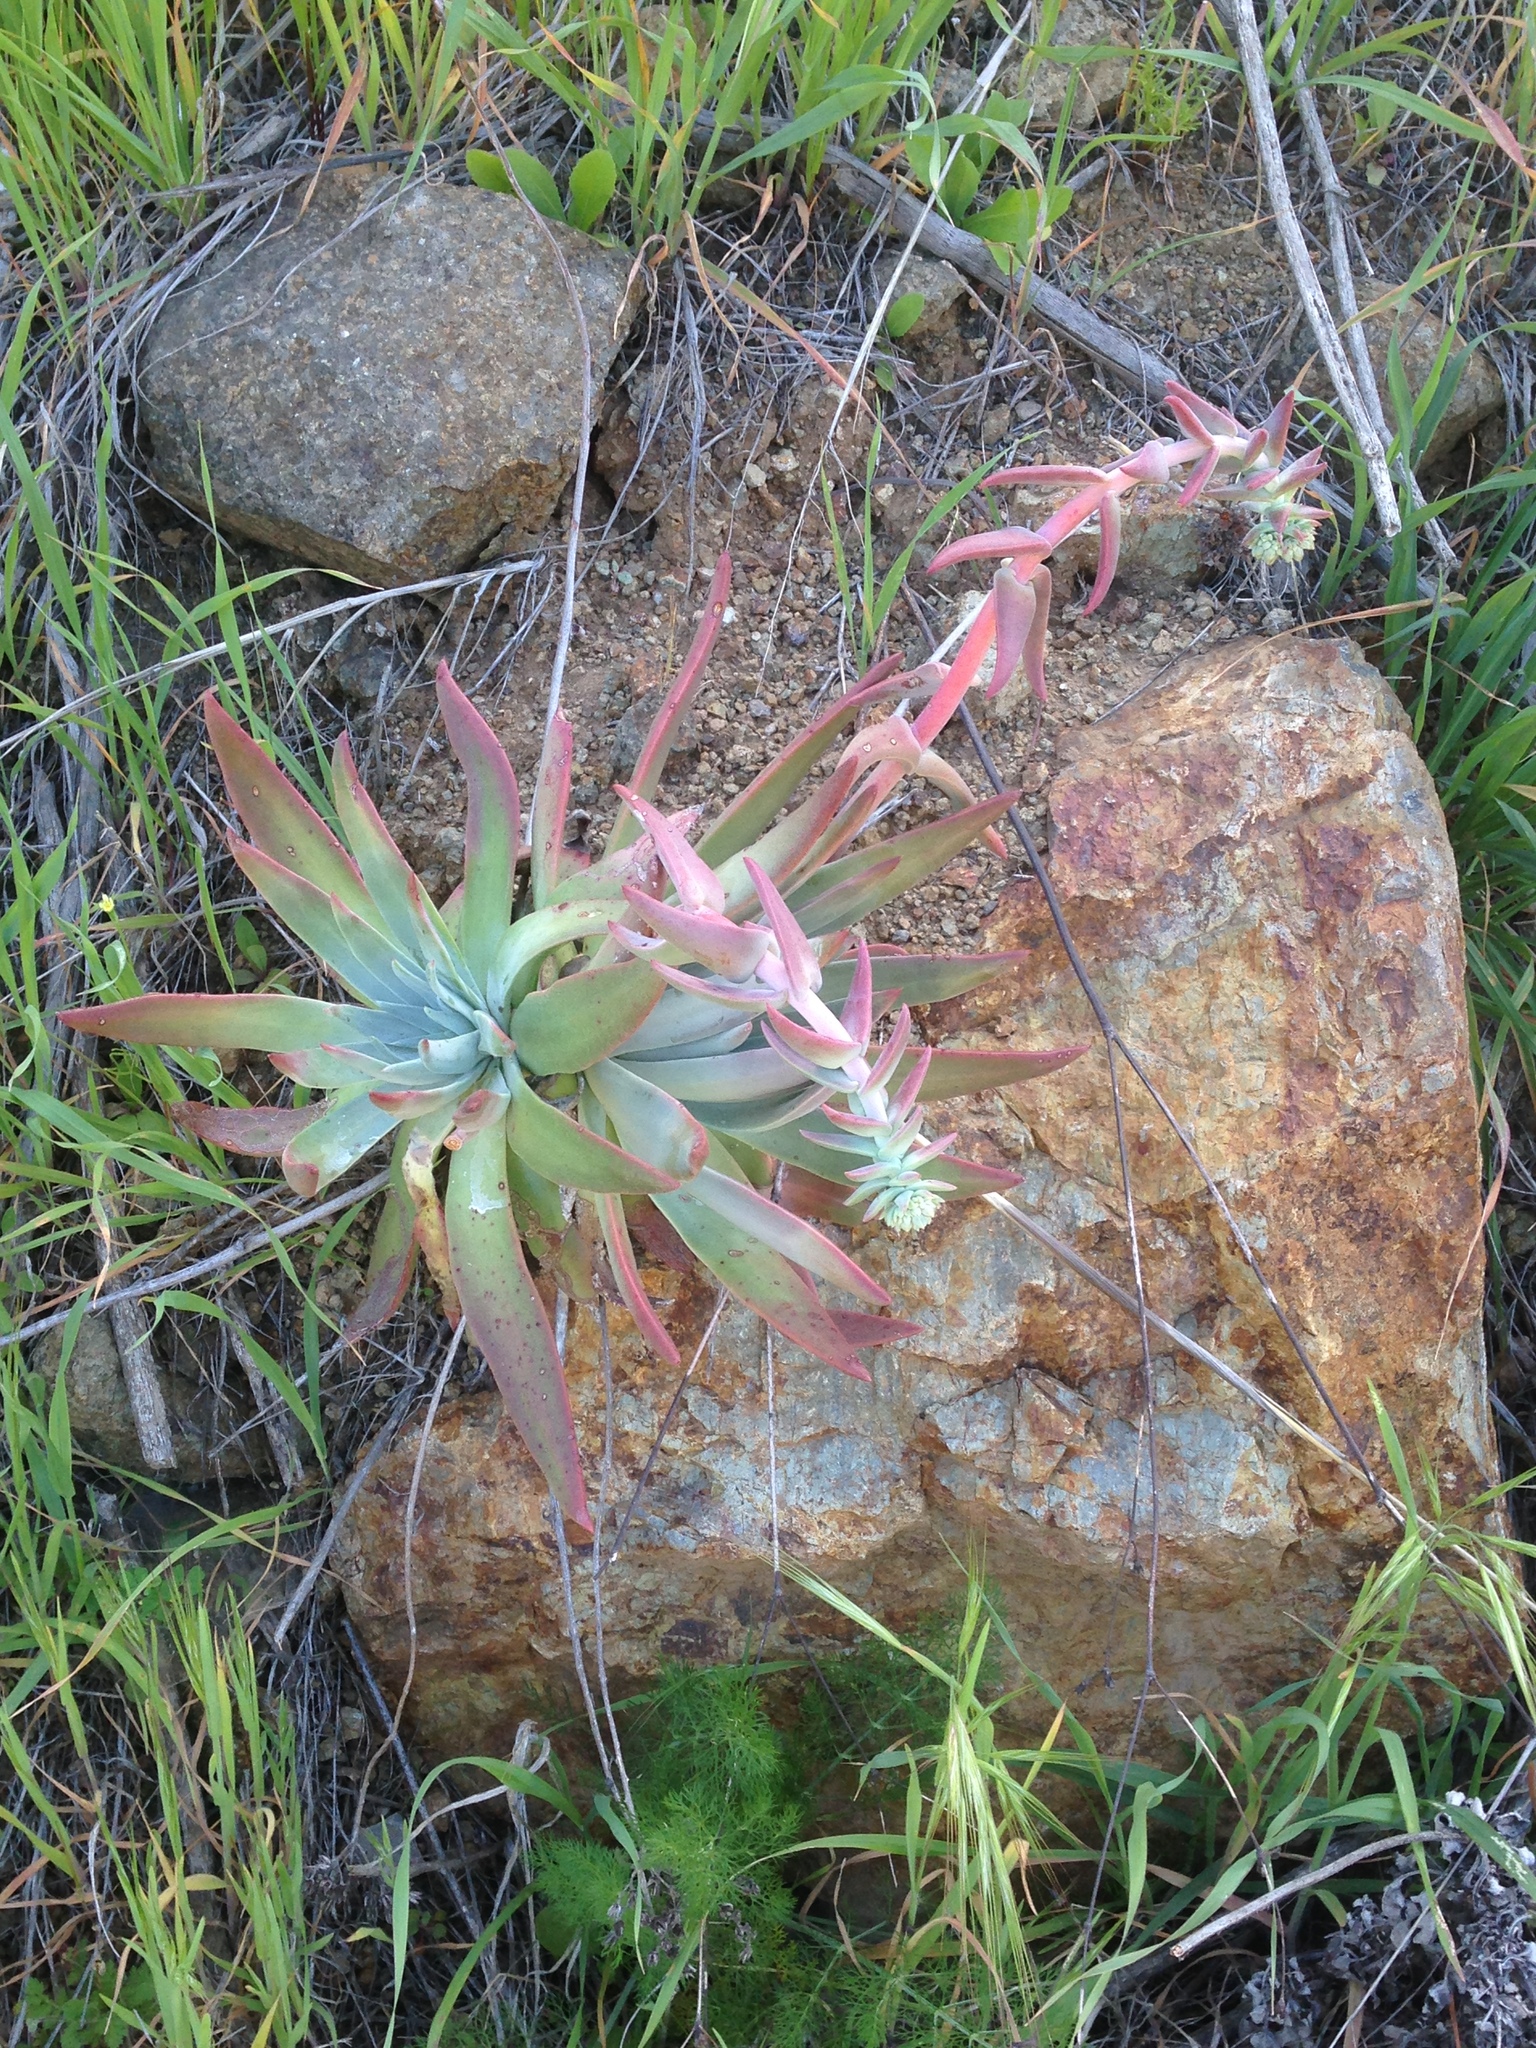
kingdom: Plantae
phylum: Tracheophyta
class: Magnoliopsida
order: Saxifragales
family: Crassulaceae
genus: Dudleya
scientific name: Dudleya candelabrum
